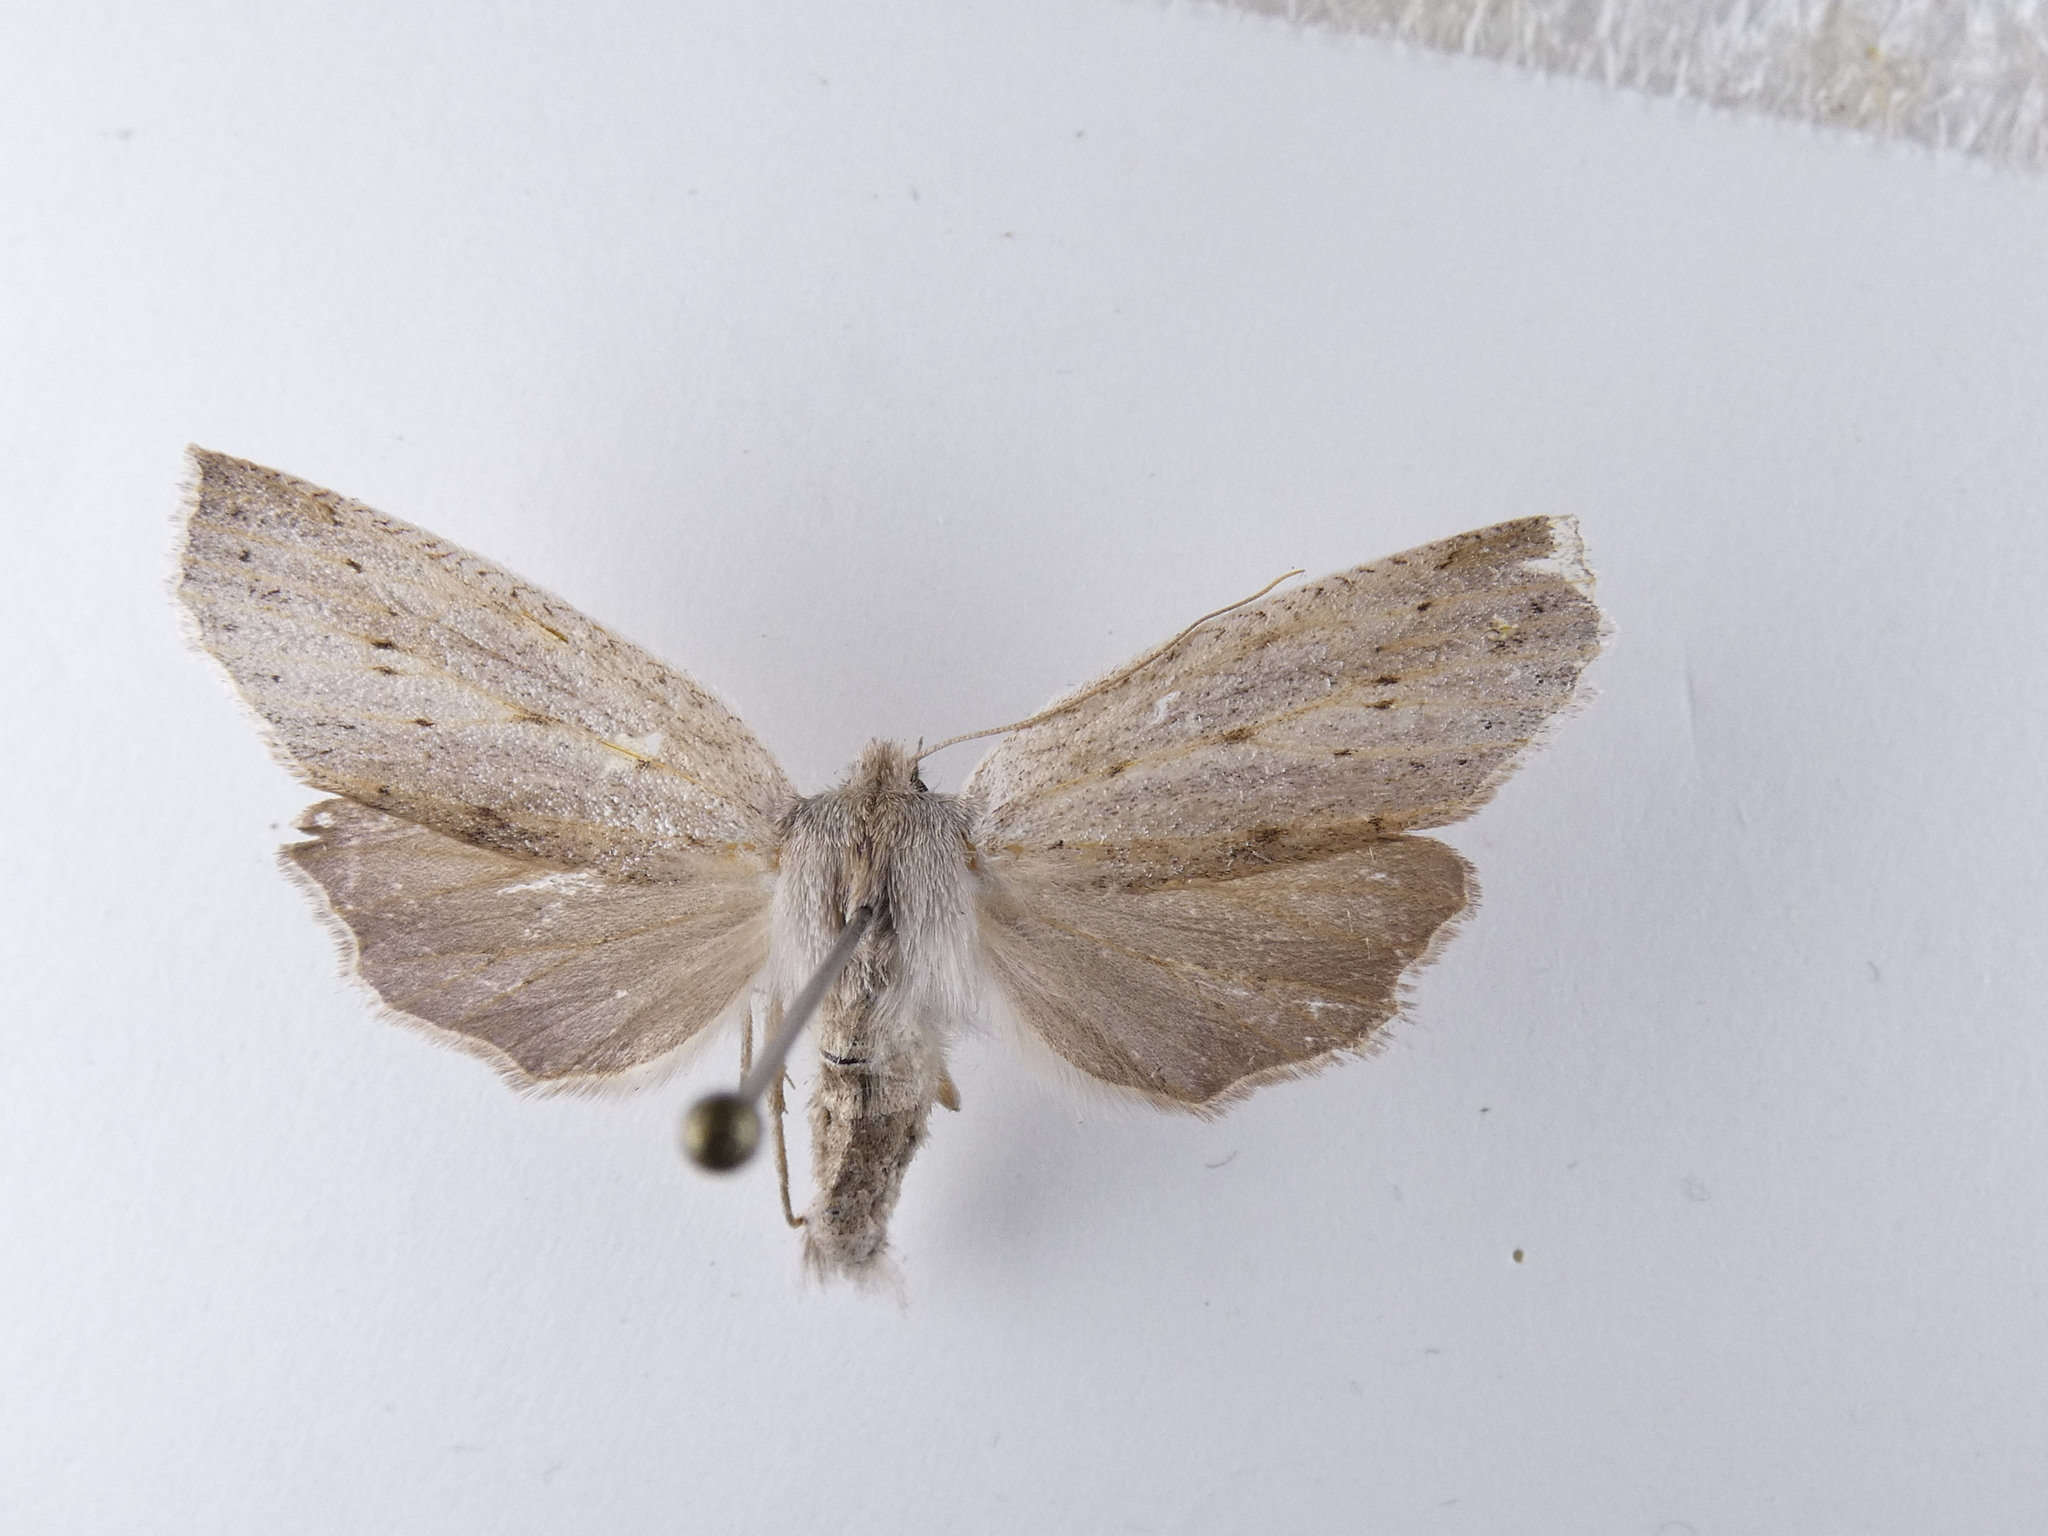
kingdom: Animalia
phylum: Arthropoda
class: Insecta
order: Lepidoptera
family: Geometridae
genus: Declana
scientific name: Declana leptomera
